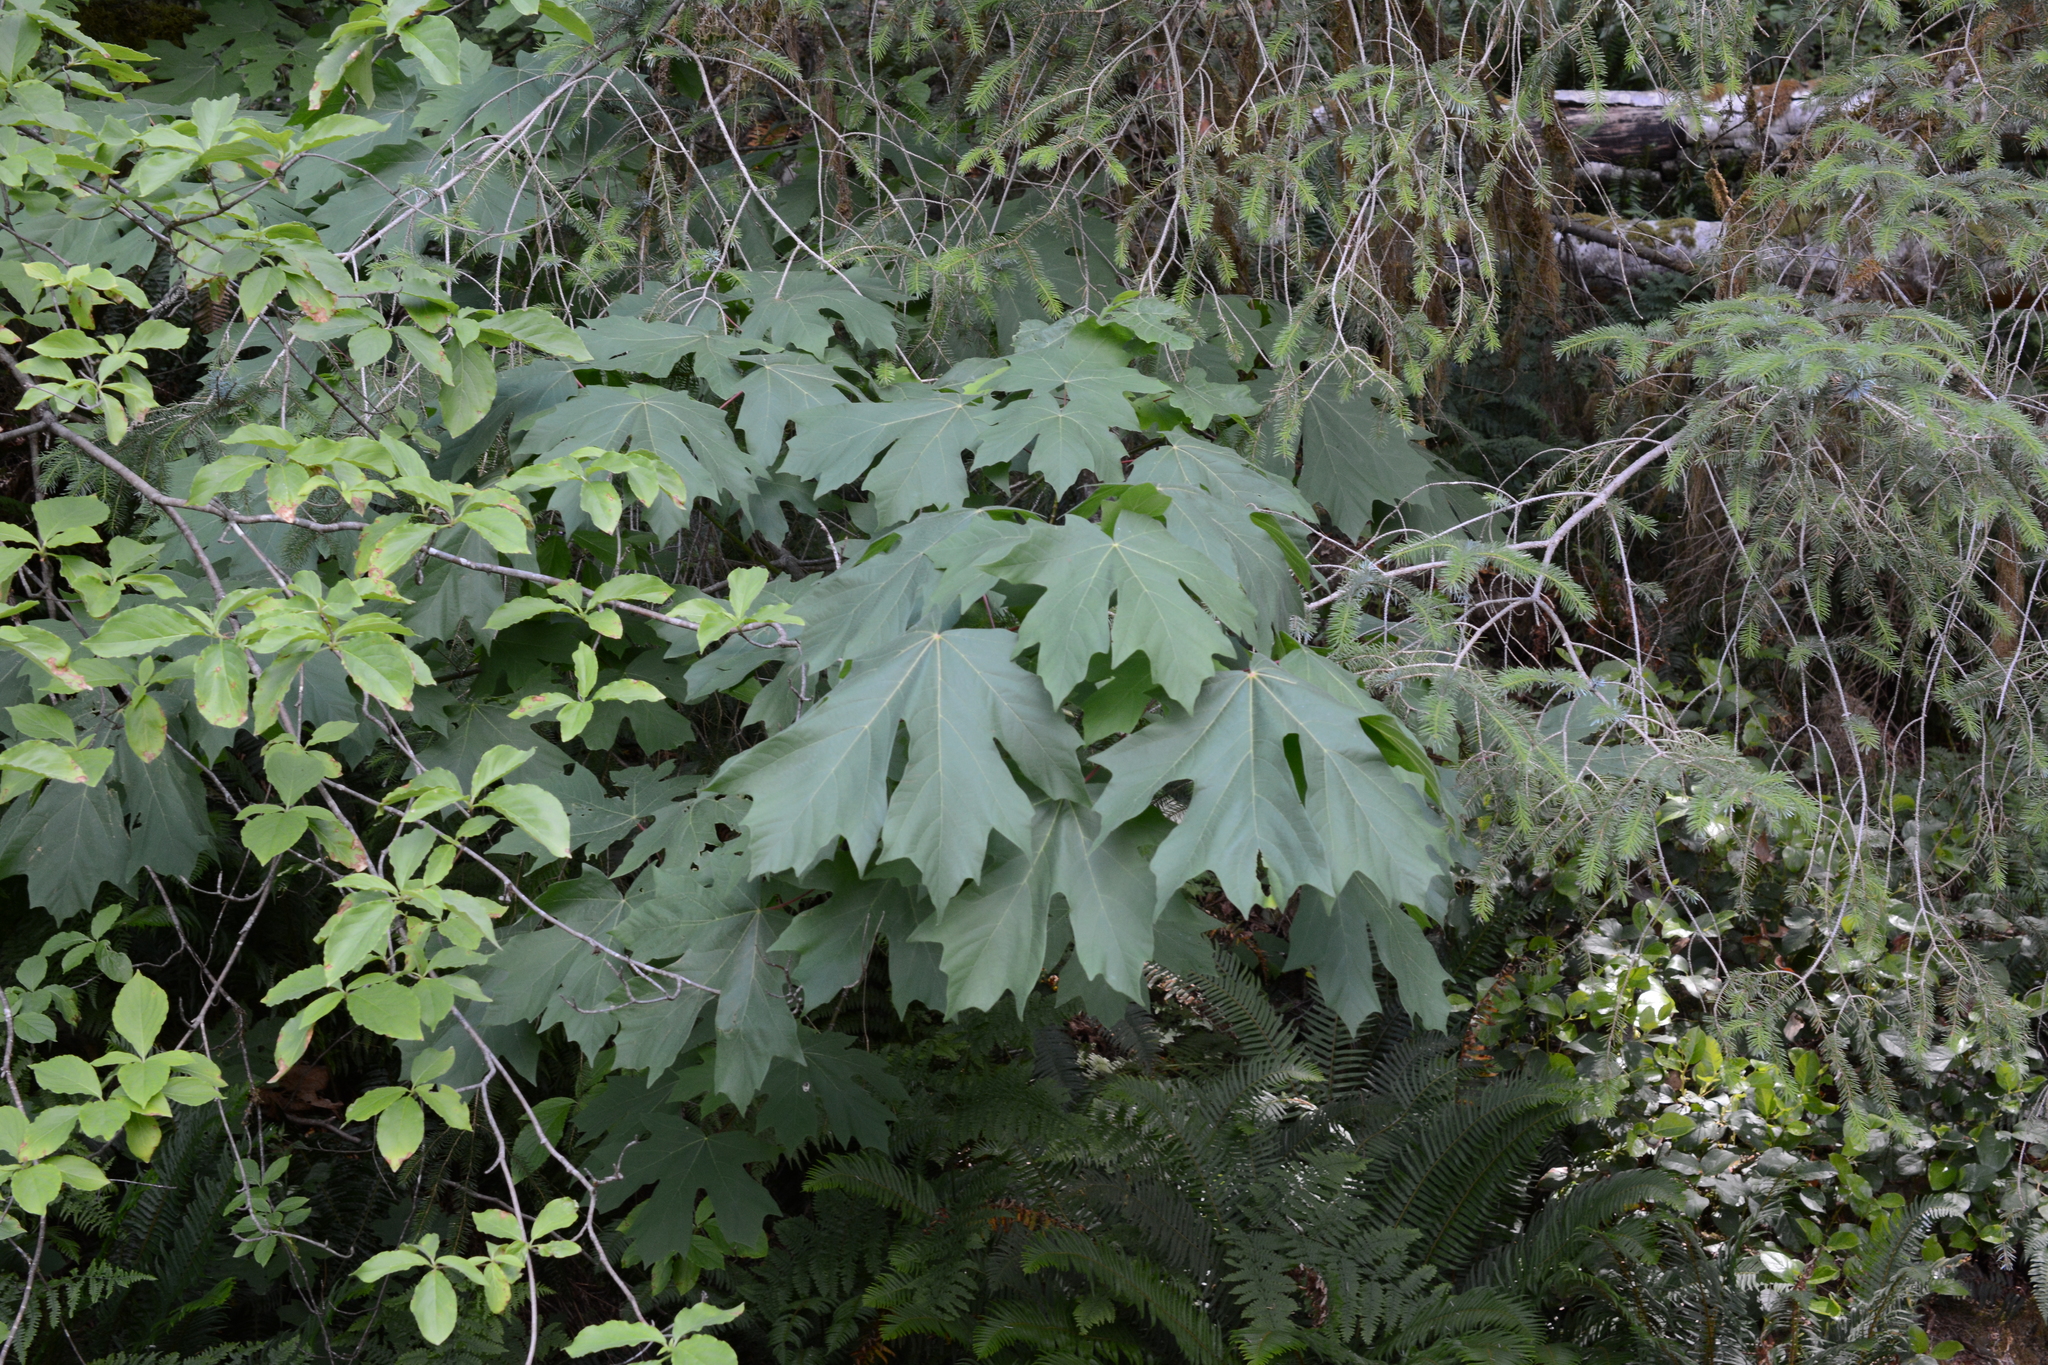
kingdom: Plantae
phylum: Tracheophyta
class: Magnoliopsida
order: Sapindales
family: Sapindaceae
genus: Acer
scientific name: Acer macrophyllum
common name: Oregon maple
